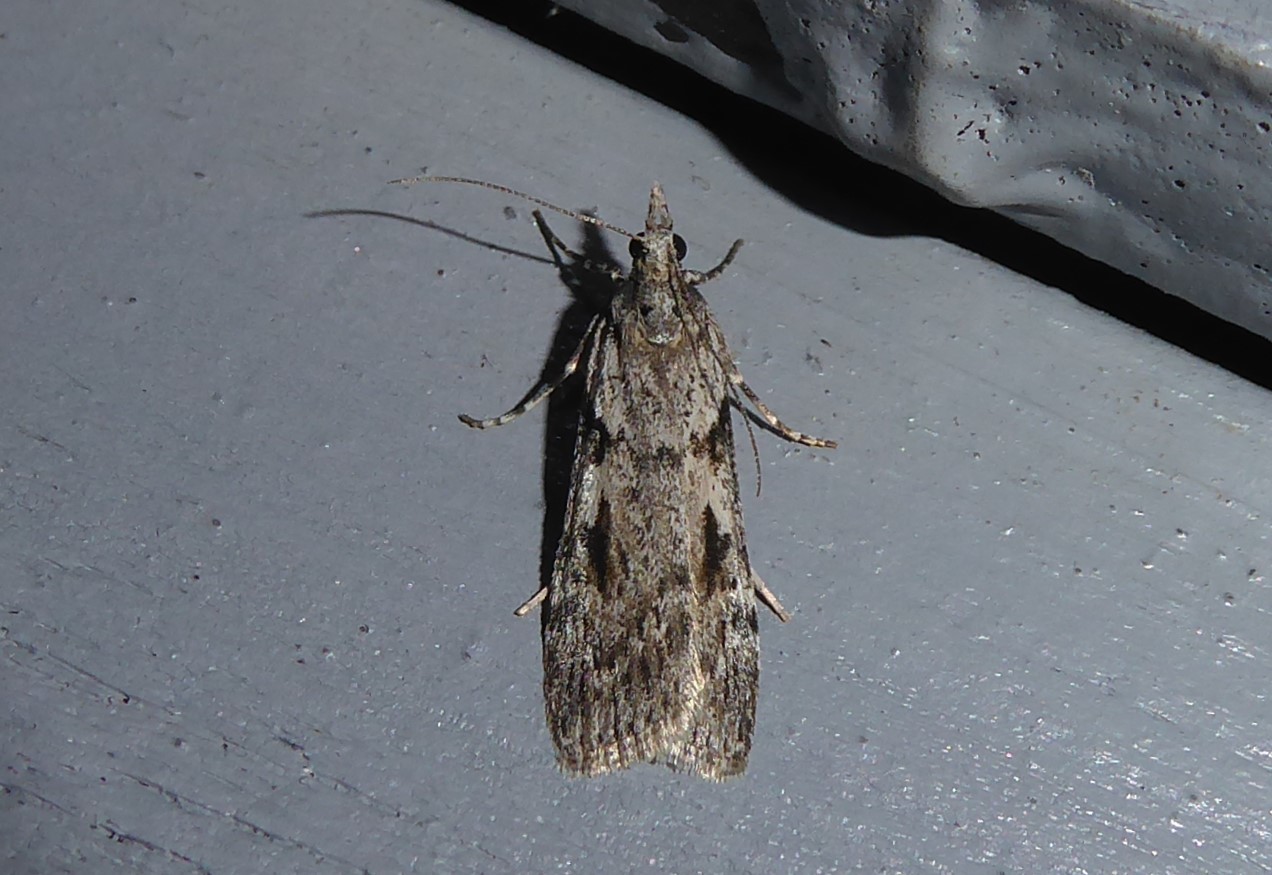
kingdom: Animalia
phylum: Arthropoda
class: Insecta
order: Lepidoptera
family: Crambidae
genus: Scoparia
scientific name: Scoparia halopis
